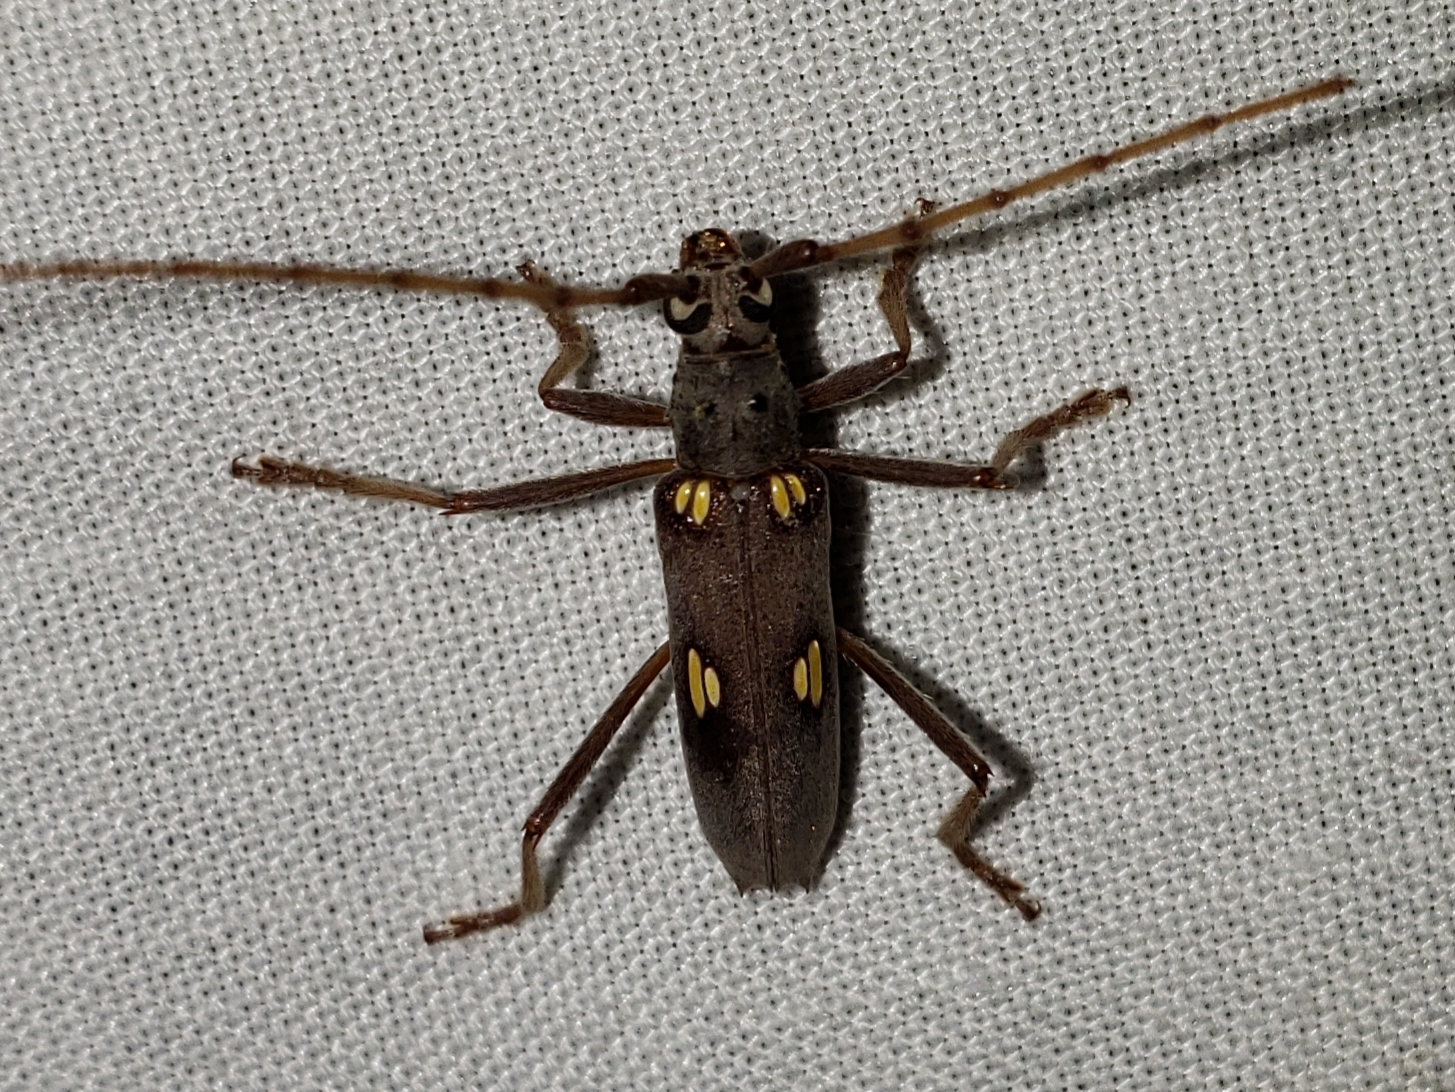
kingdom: Animalia
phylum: Arthropoda
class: Insecta
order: Coleoptera
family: Cerambycidae
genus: Eburia
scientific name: Eburia distincta
